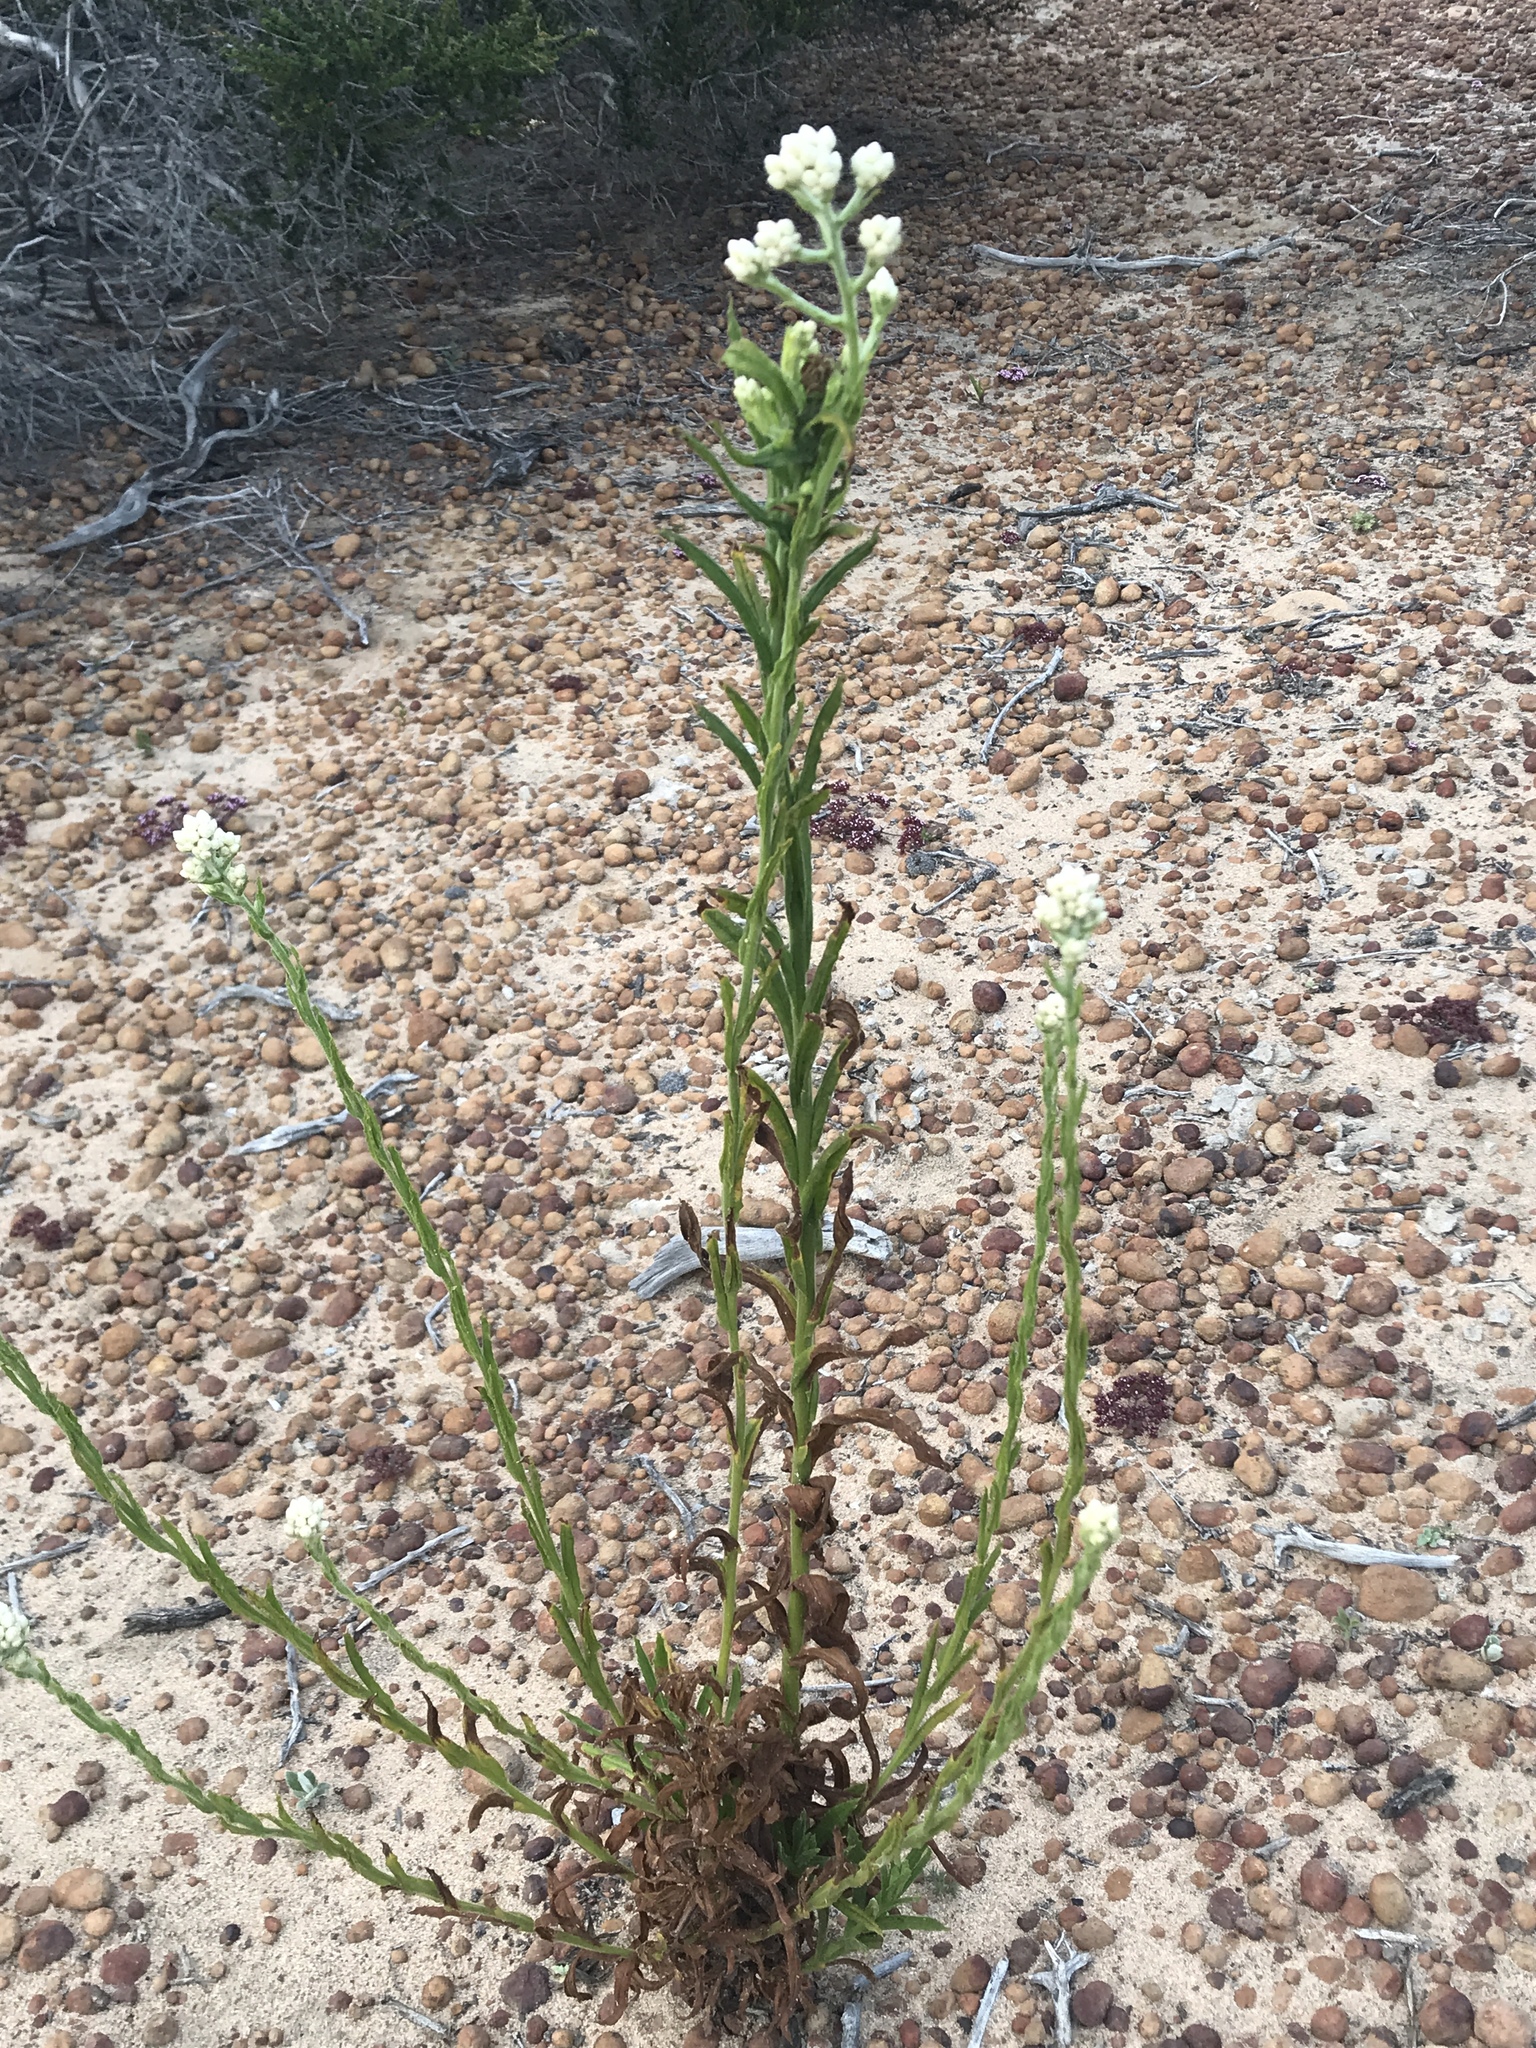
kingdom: Plantae
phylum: Tracheophyta
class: Magnoliopsida
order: Asterales
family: Asteraceae
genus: Pseudognaphalium
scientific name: Pseudognaphalium californicum
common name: California rabbit-tobacco
